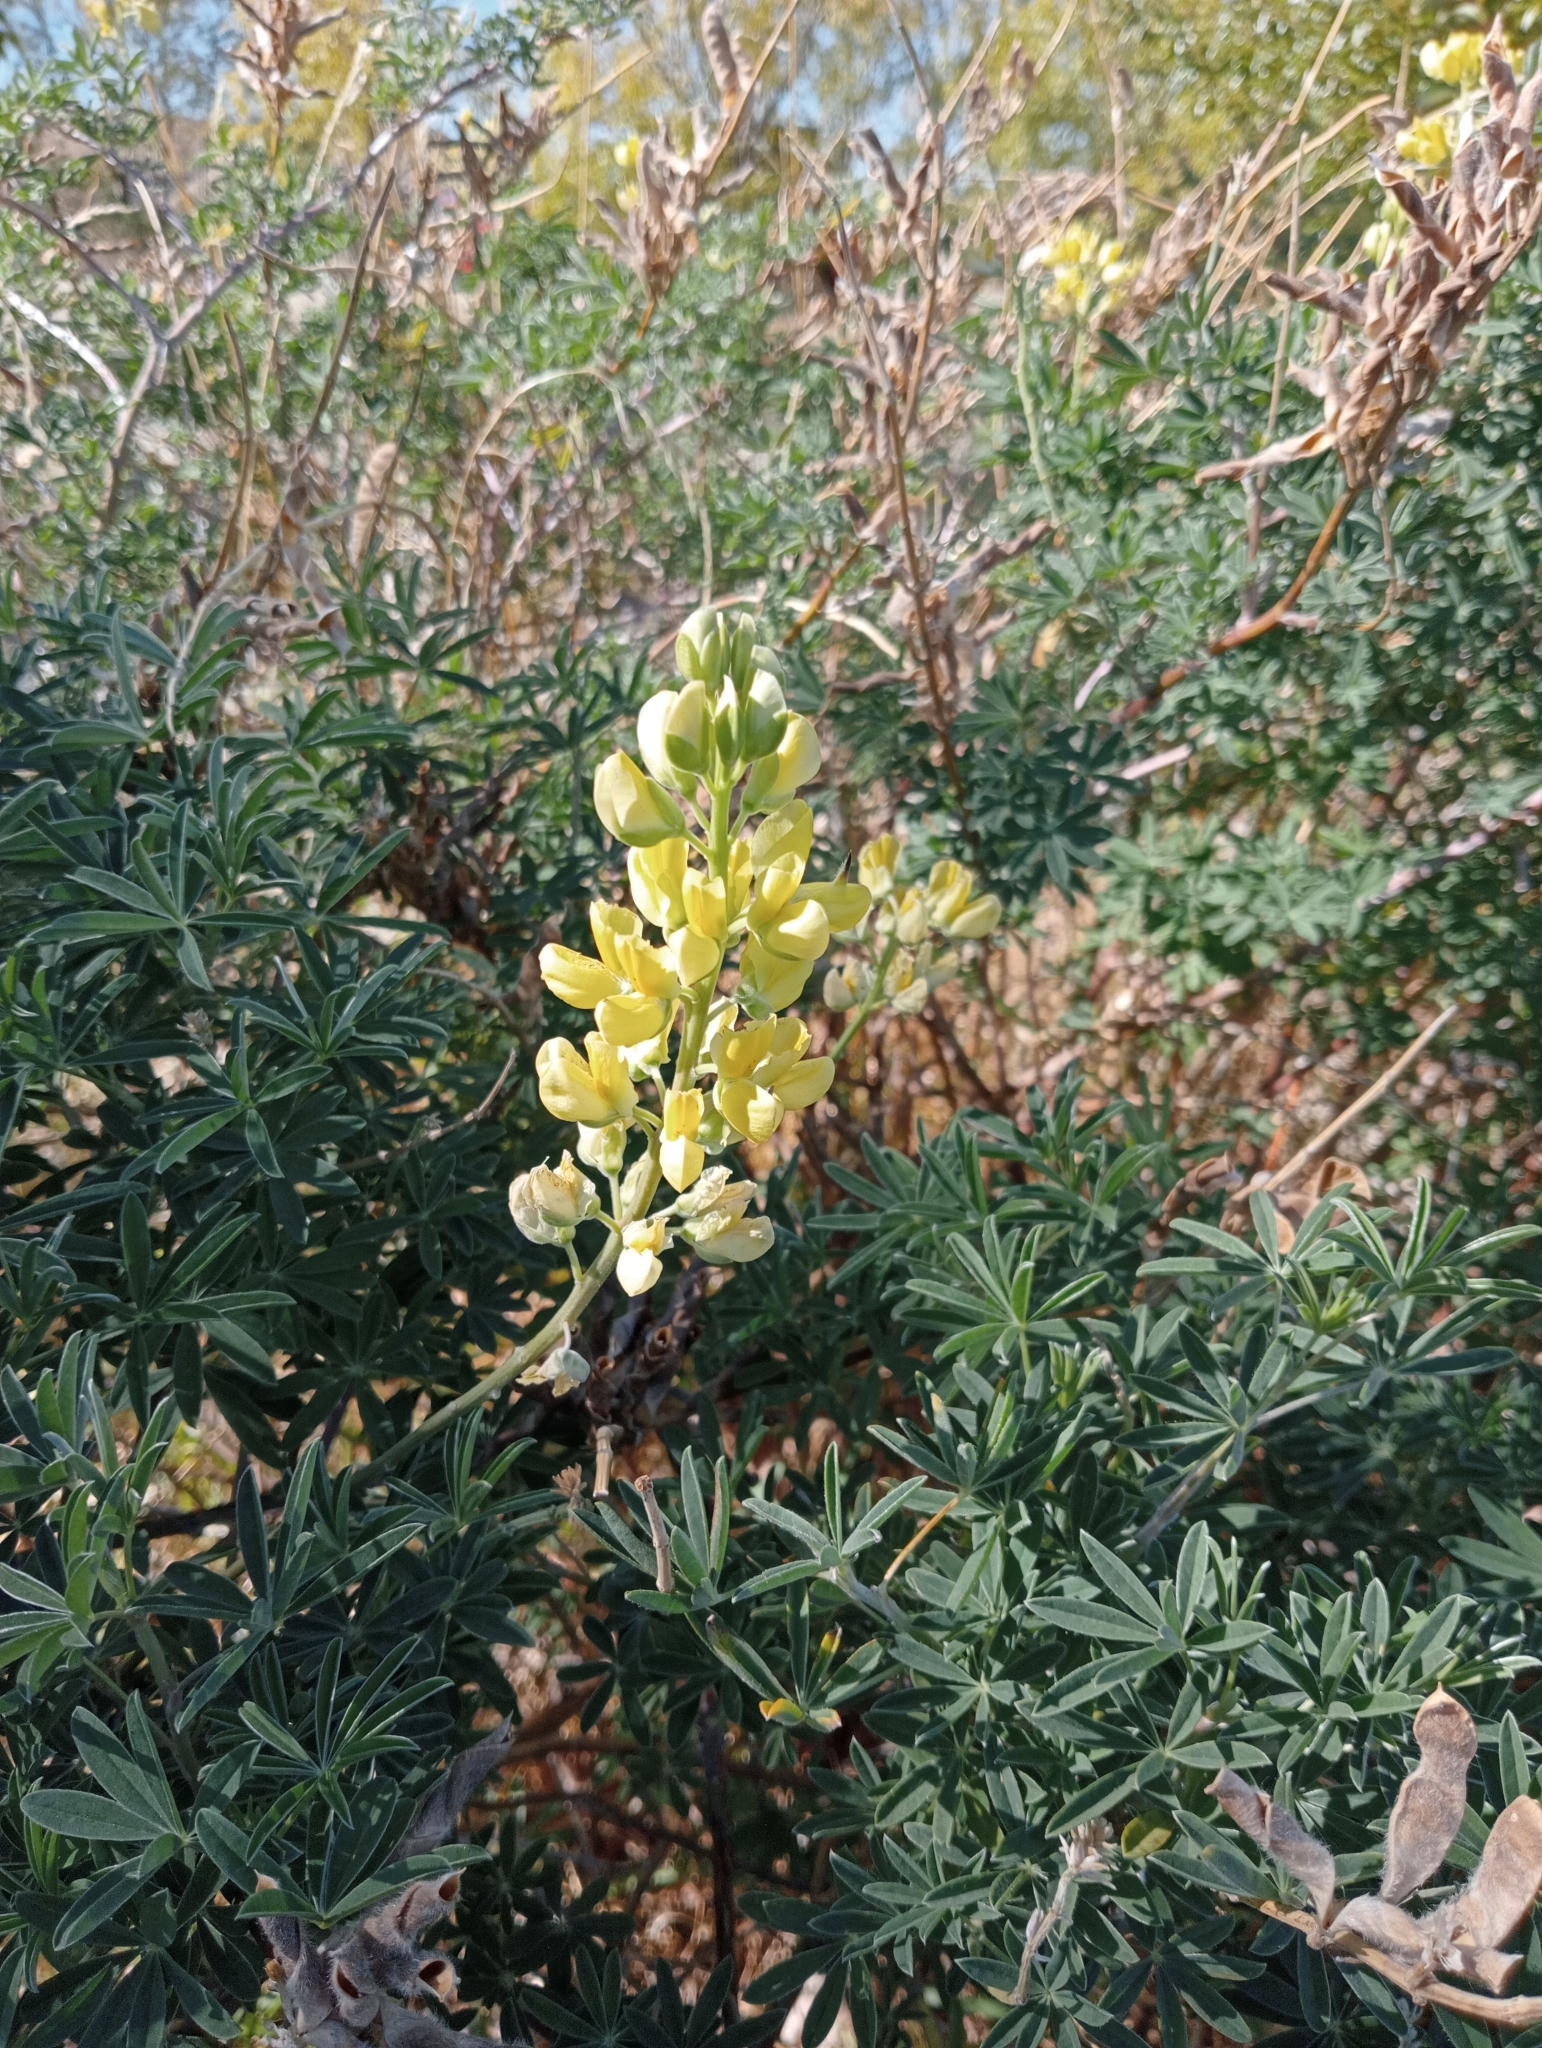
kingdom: Plantae
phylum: Tracheophyta
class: Magnoliopsida
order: Fabales
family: Fabaceae
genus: Lupinus
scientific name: Lupinus arboreus
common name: Yellow bush lupine
